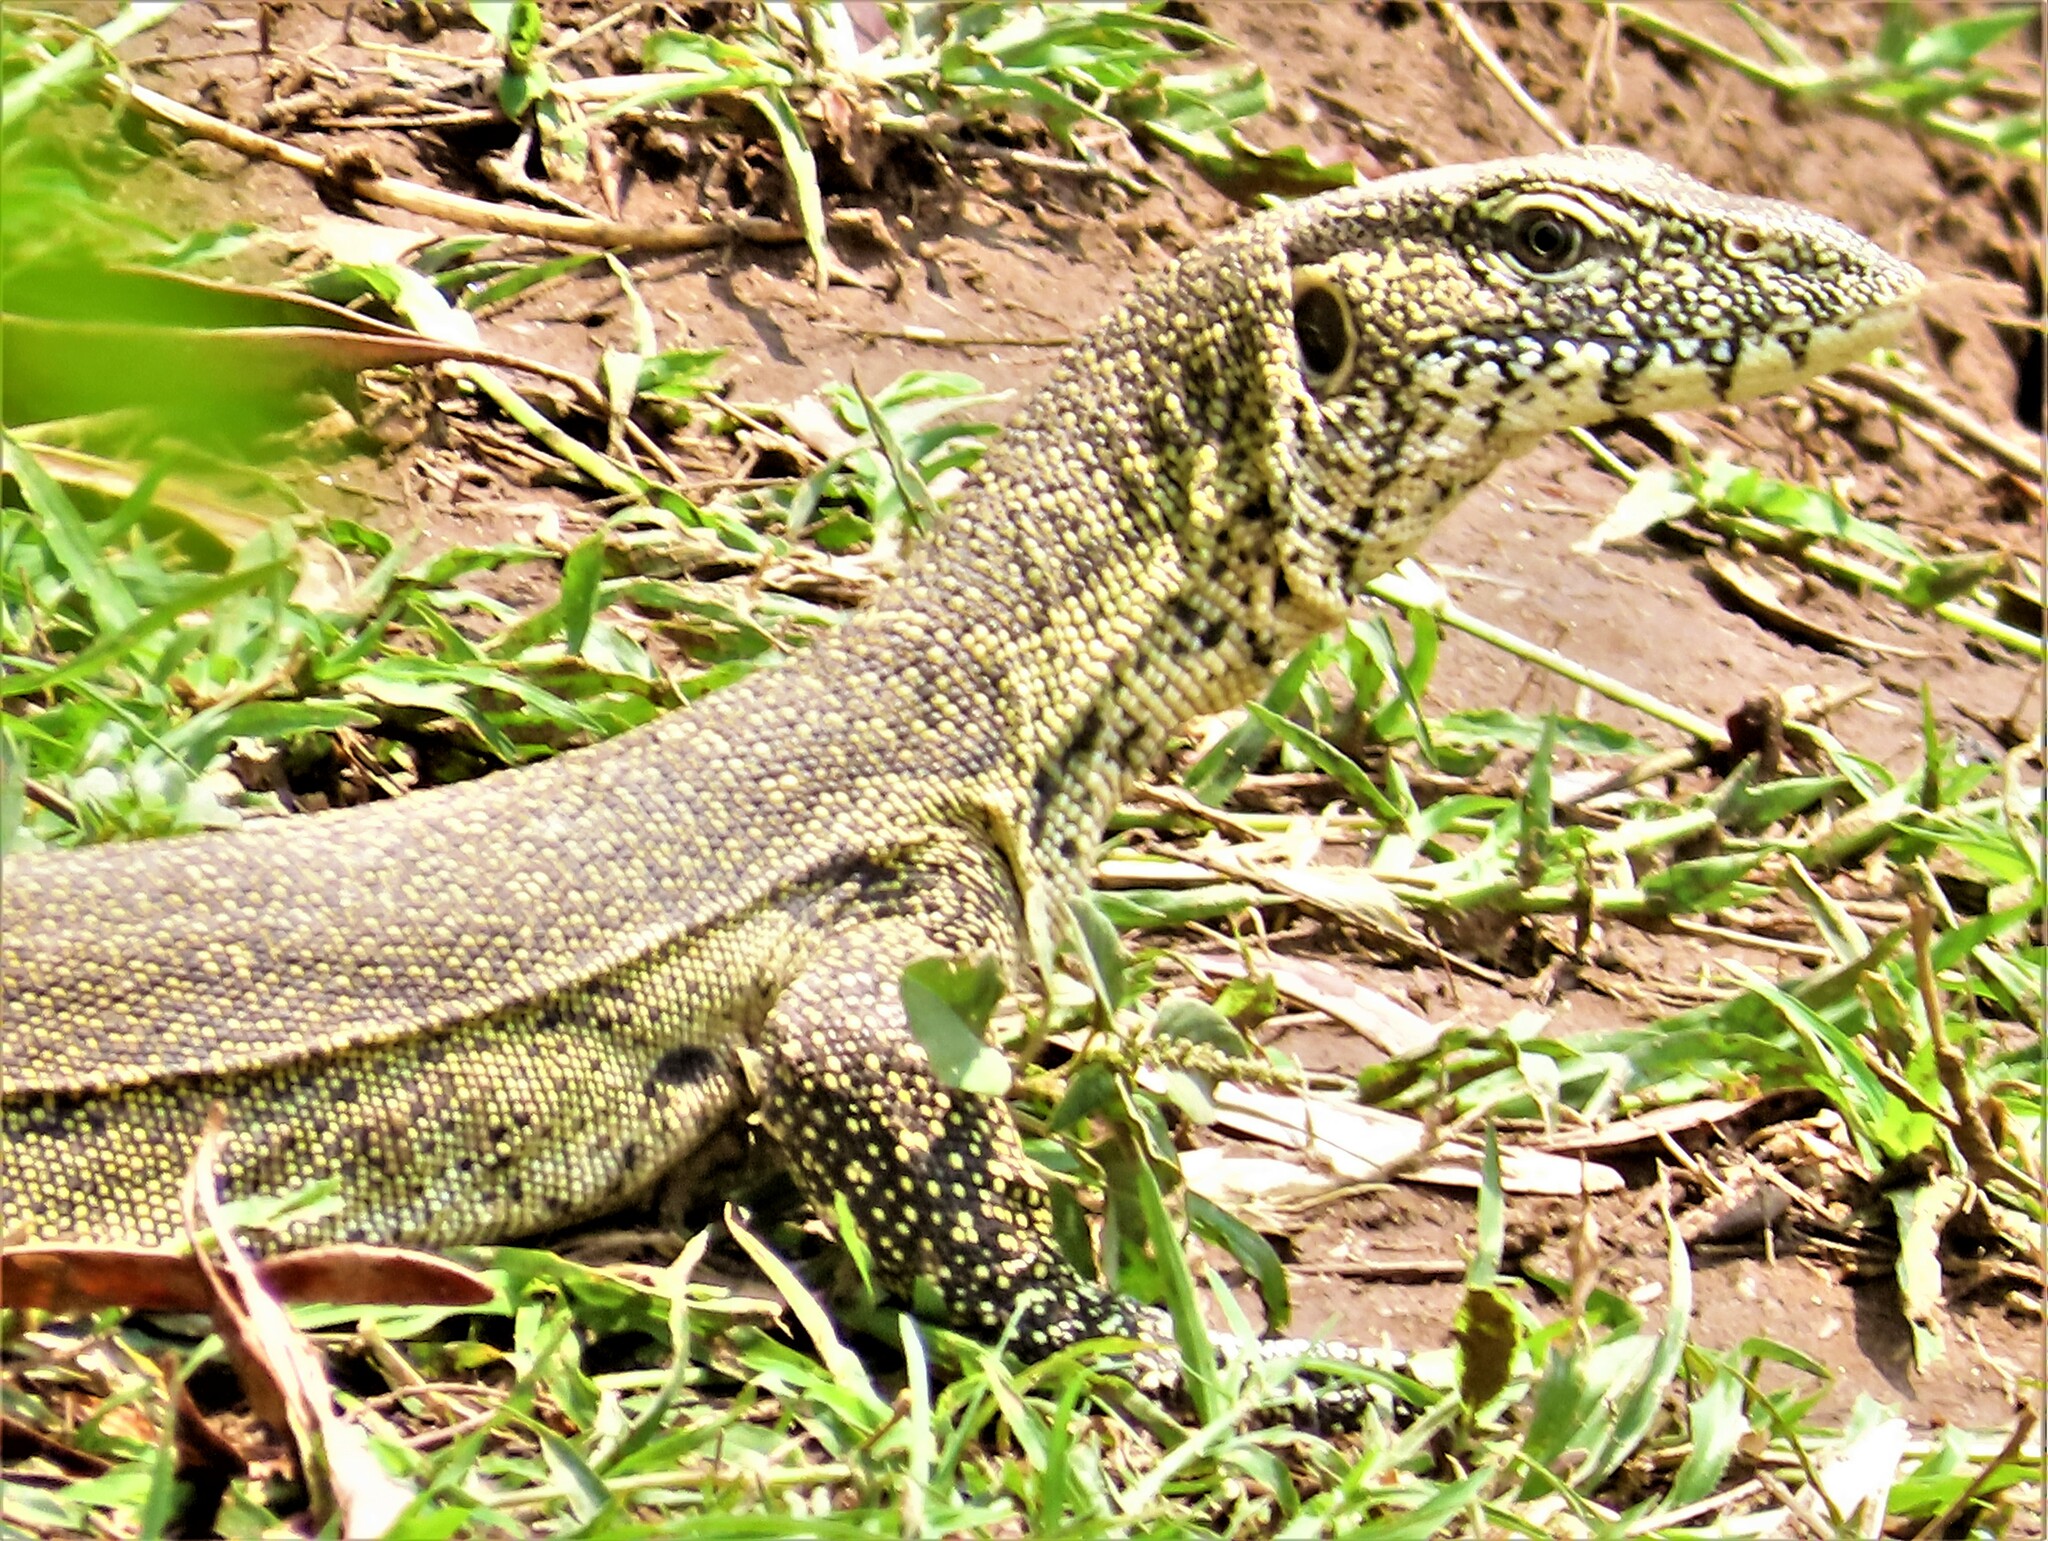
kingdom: Animalia
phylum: Chordata
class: Squamata
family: Varanidae
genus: Varanus
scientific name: Varanus niloticus
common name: Nile monitor
